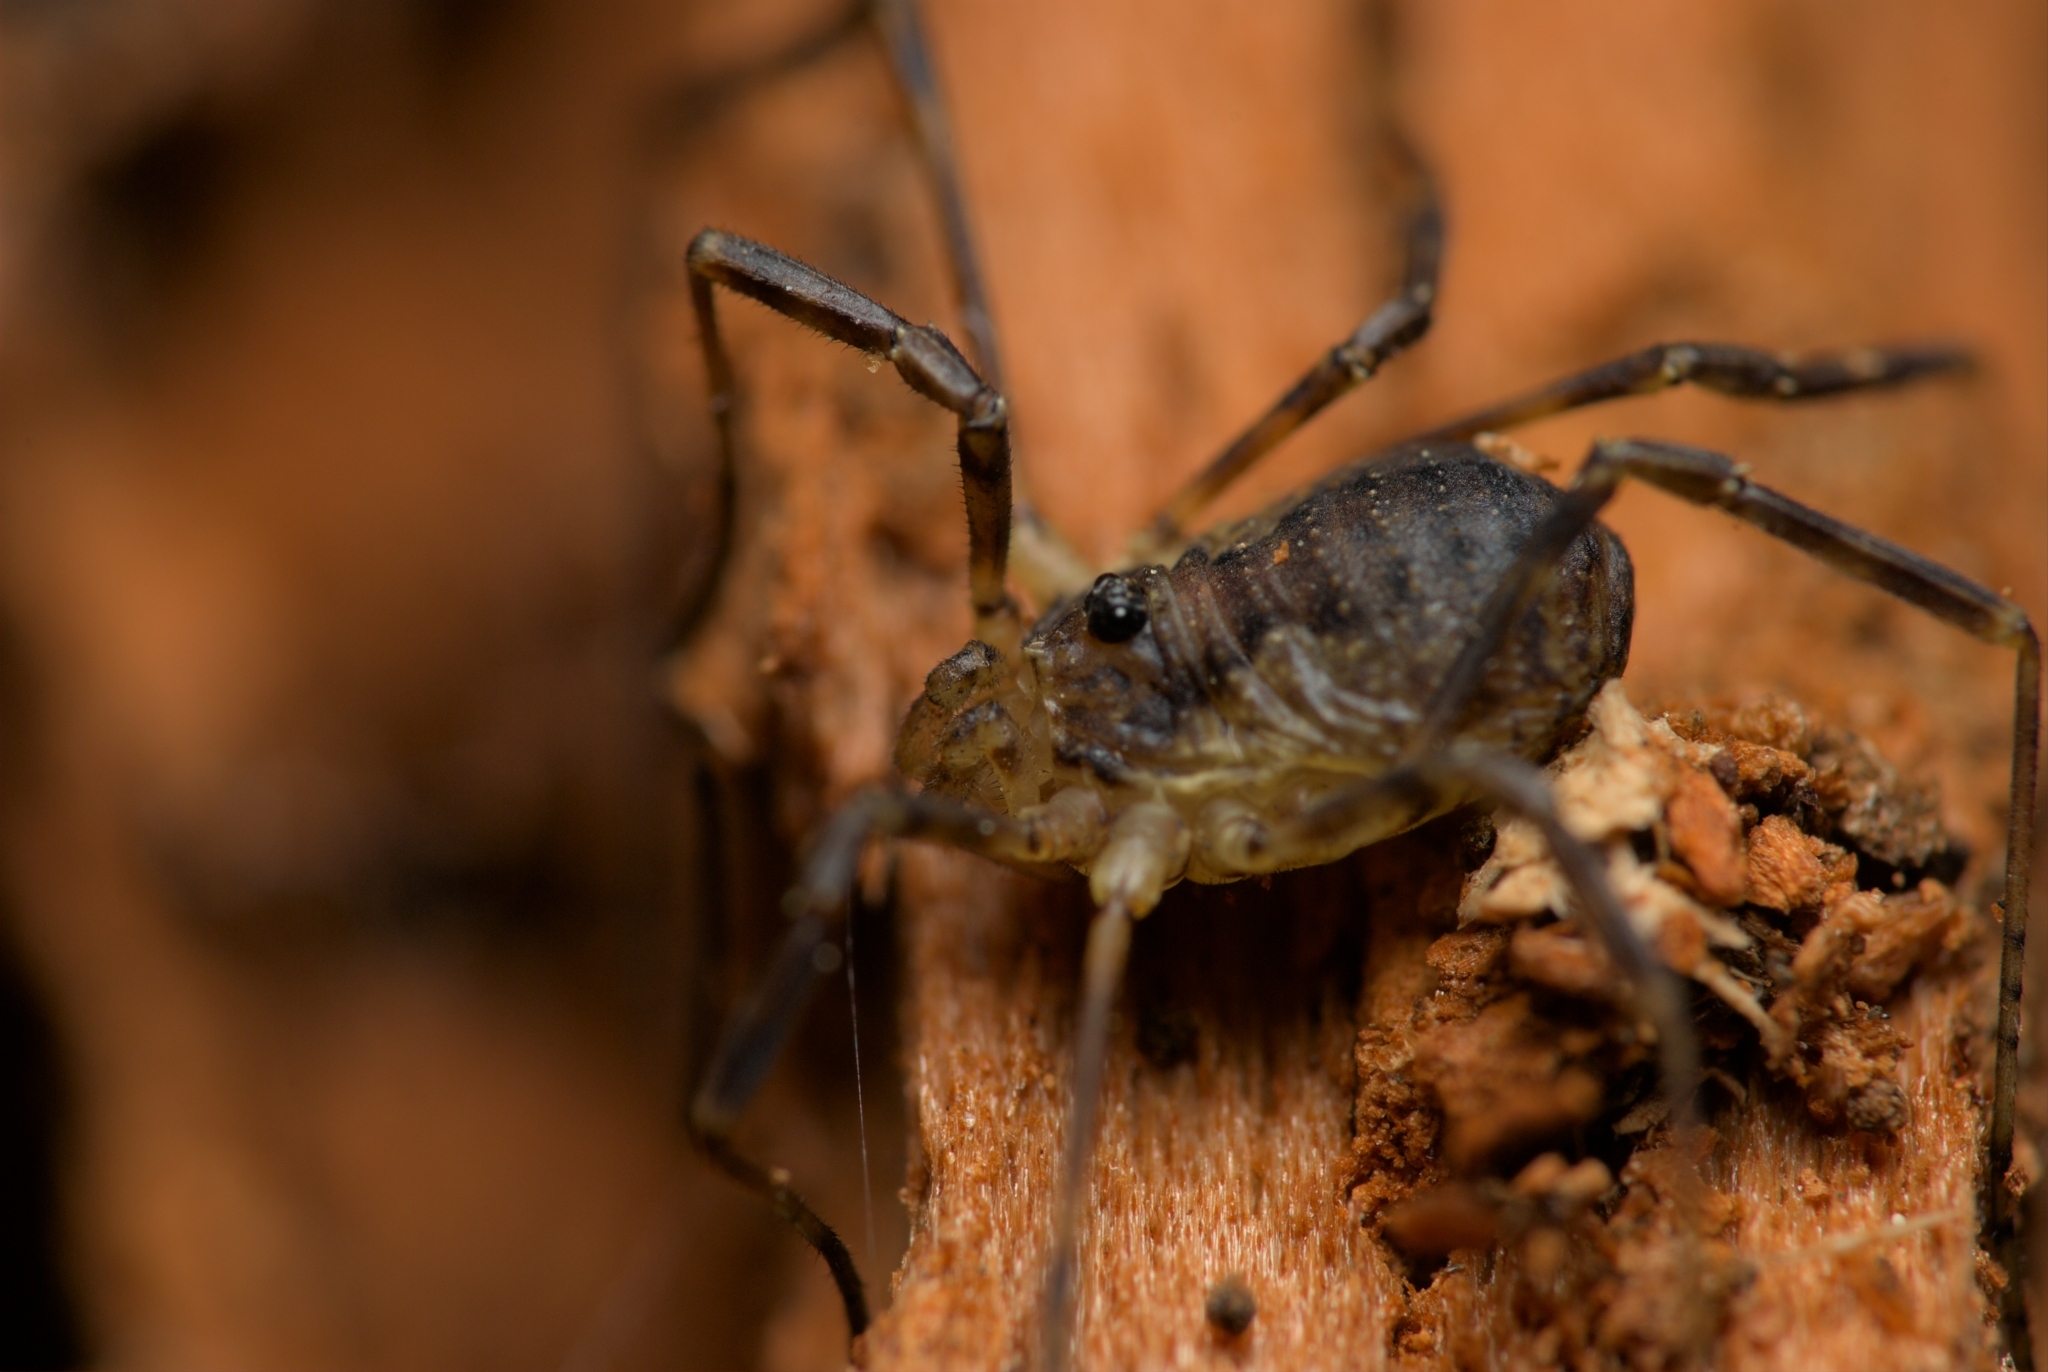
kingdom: Animalia
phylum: Arthropoda
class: Arachnida
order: Opiliones
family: Phalangiidae
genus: Oligolophus
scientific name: Oligolophus hansenii
